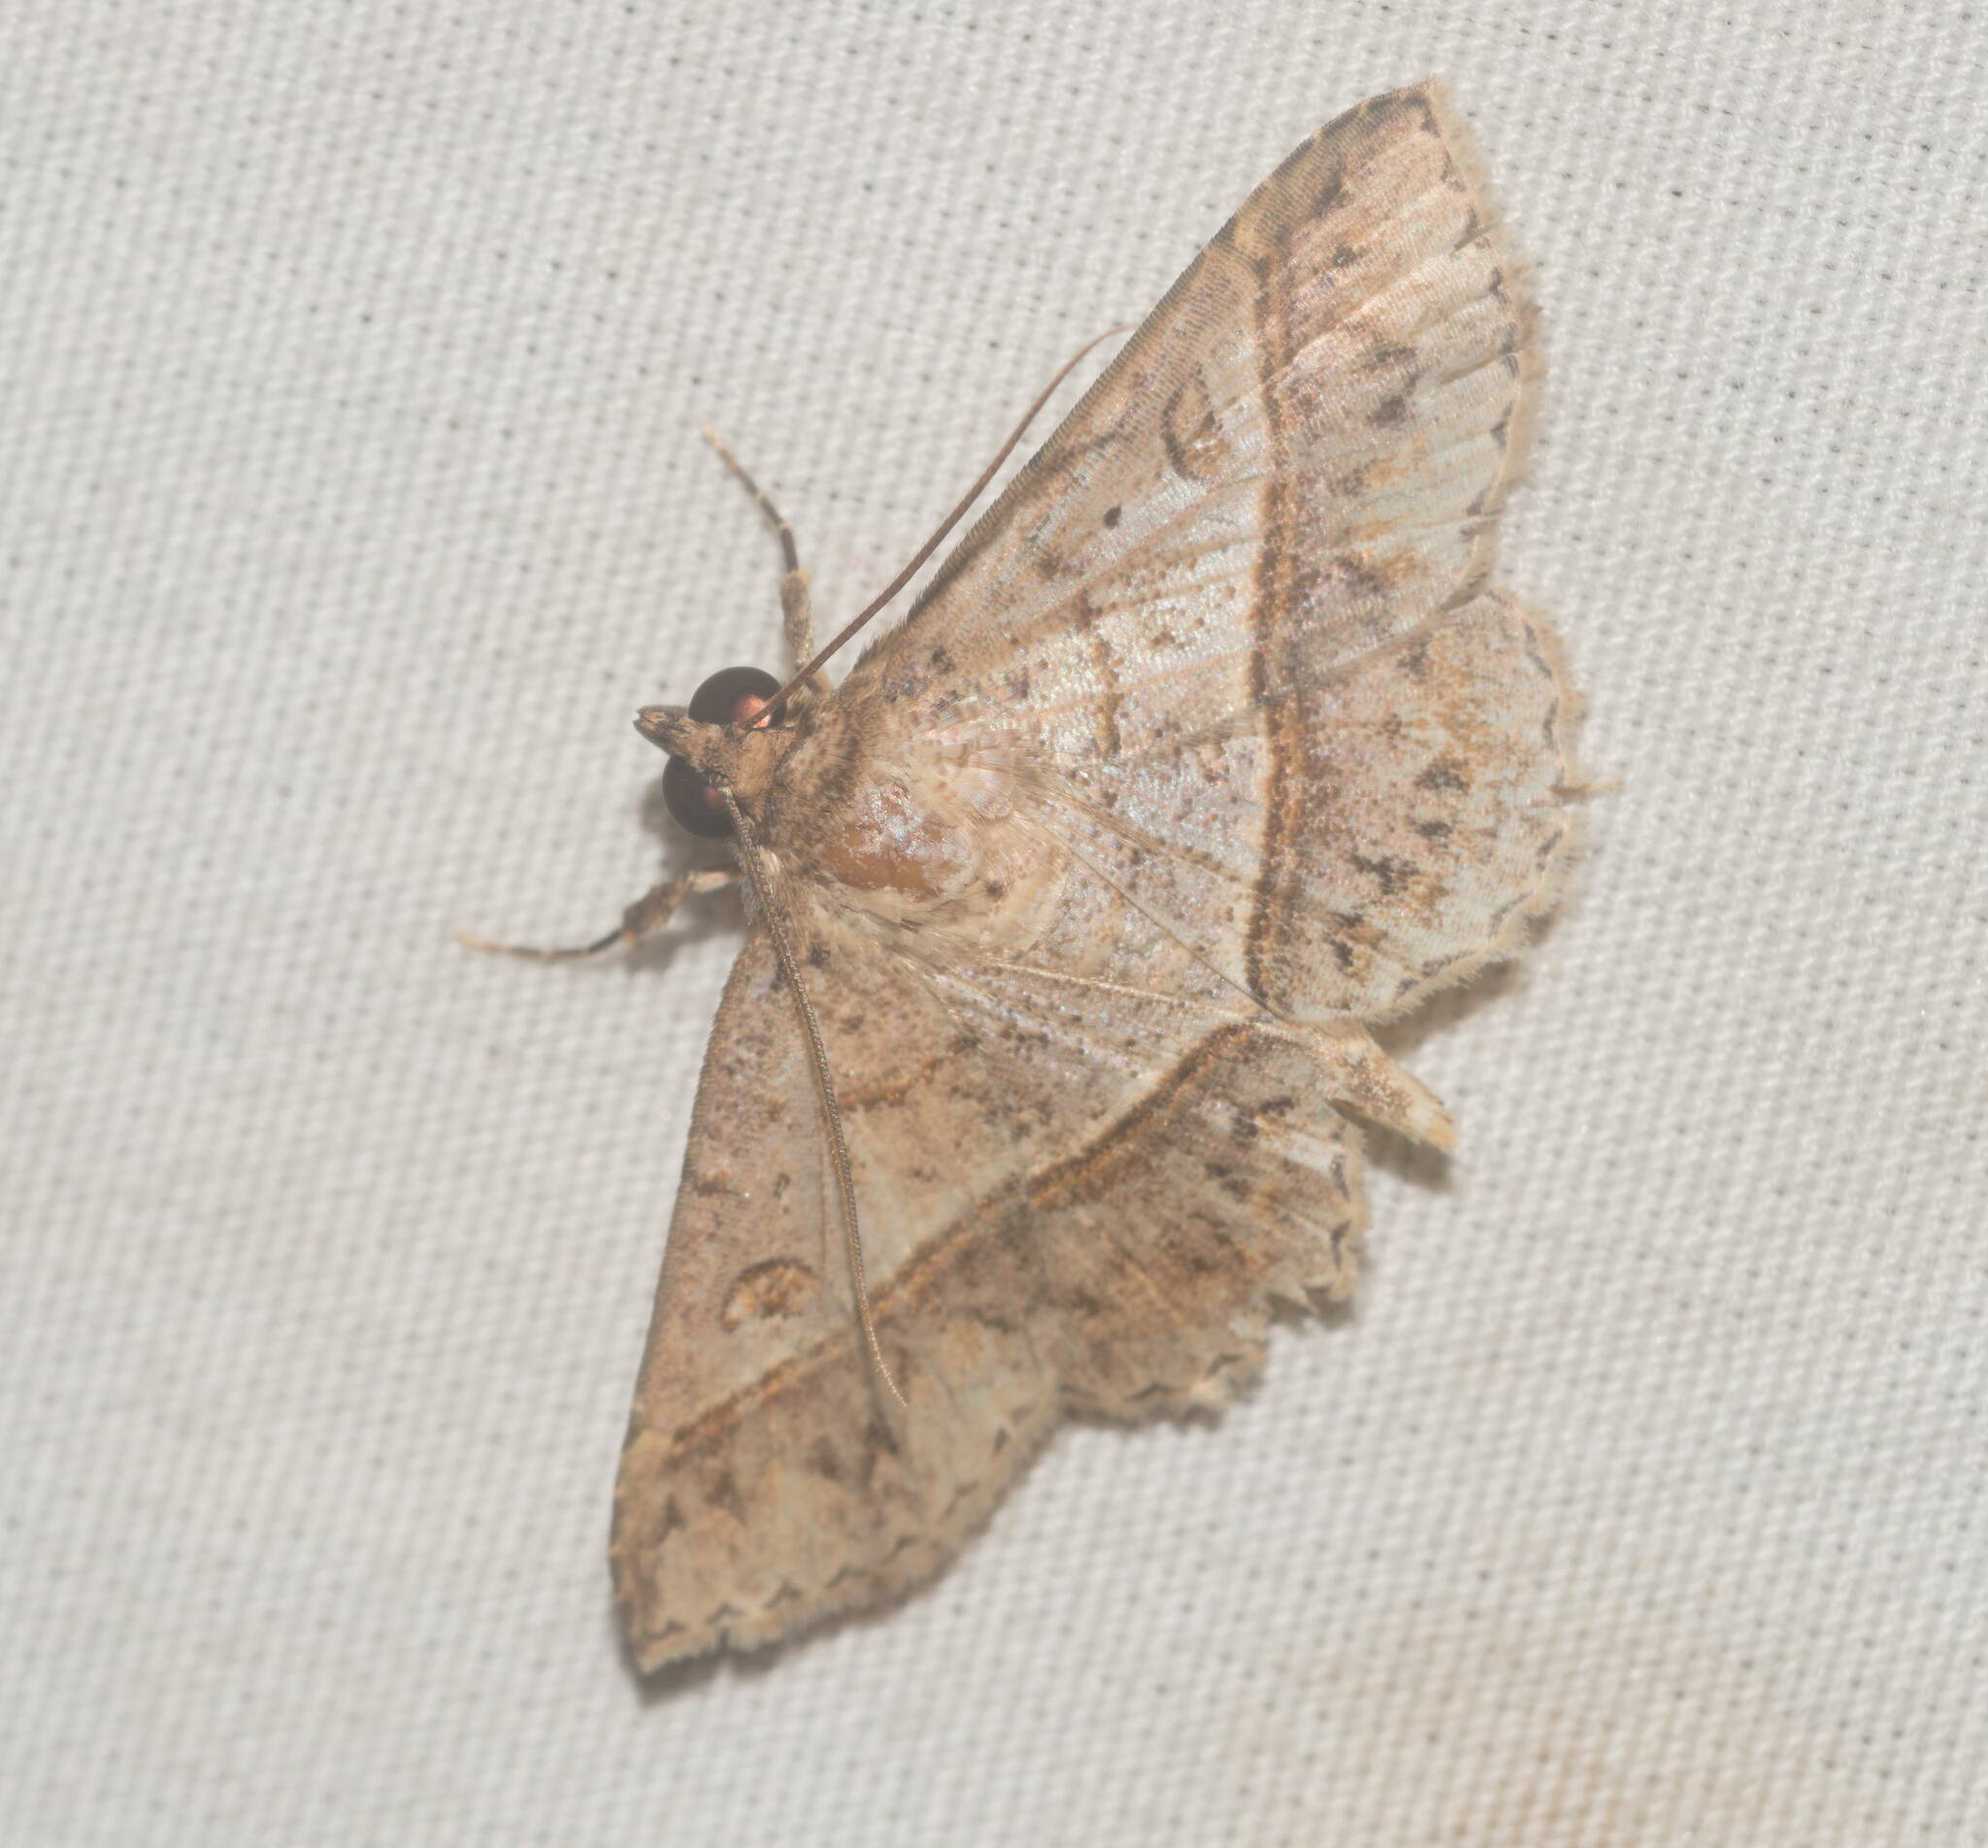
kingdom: Animalia
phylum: Arthropoda
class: Insecta
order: Lepidoptera
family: Erebidae
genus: Antiblemma
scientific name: Antiblemma acclinalis
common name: Moth
